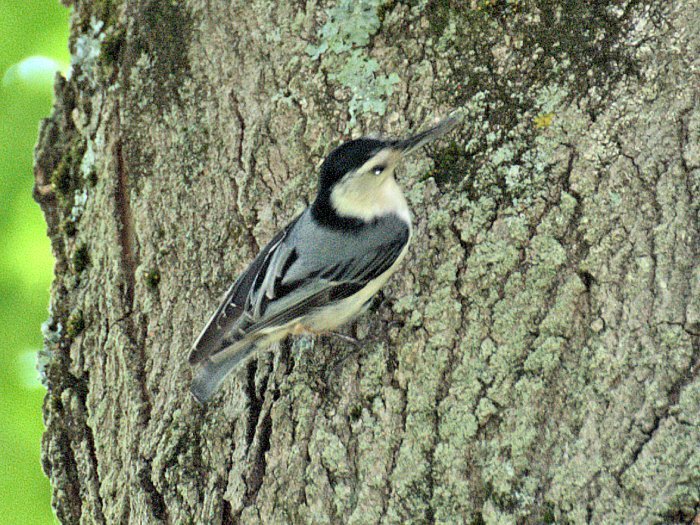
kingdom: Animalia
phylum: Chordata
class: Aves
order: Passeriformes
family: Sittidae
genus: Sitta
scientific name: Sitta carolinensis
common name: White-breasted nuthatch
